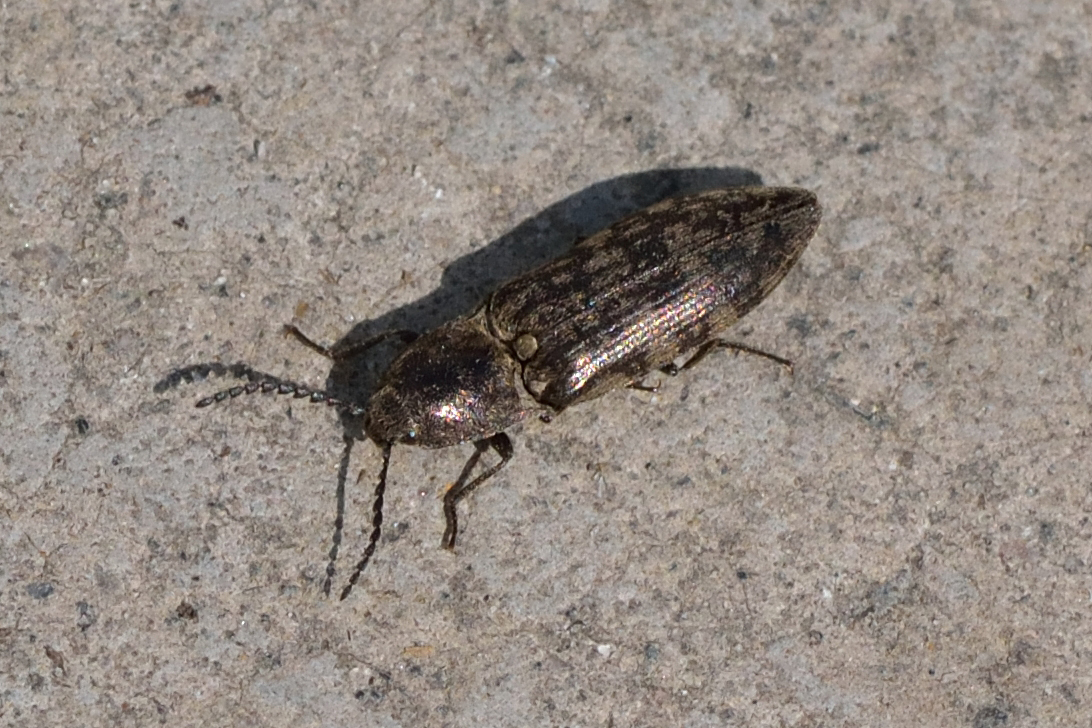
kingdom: Animalia
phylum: Arthropoda
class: Insecta
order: Coleoptera
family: Elateridae
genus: Actenicerus
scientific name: Actenicerus sjaelandicus
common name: Marsh click beetle
